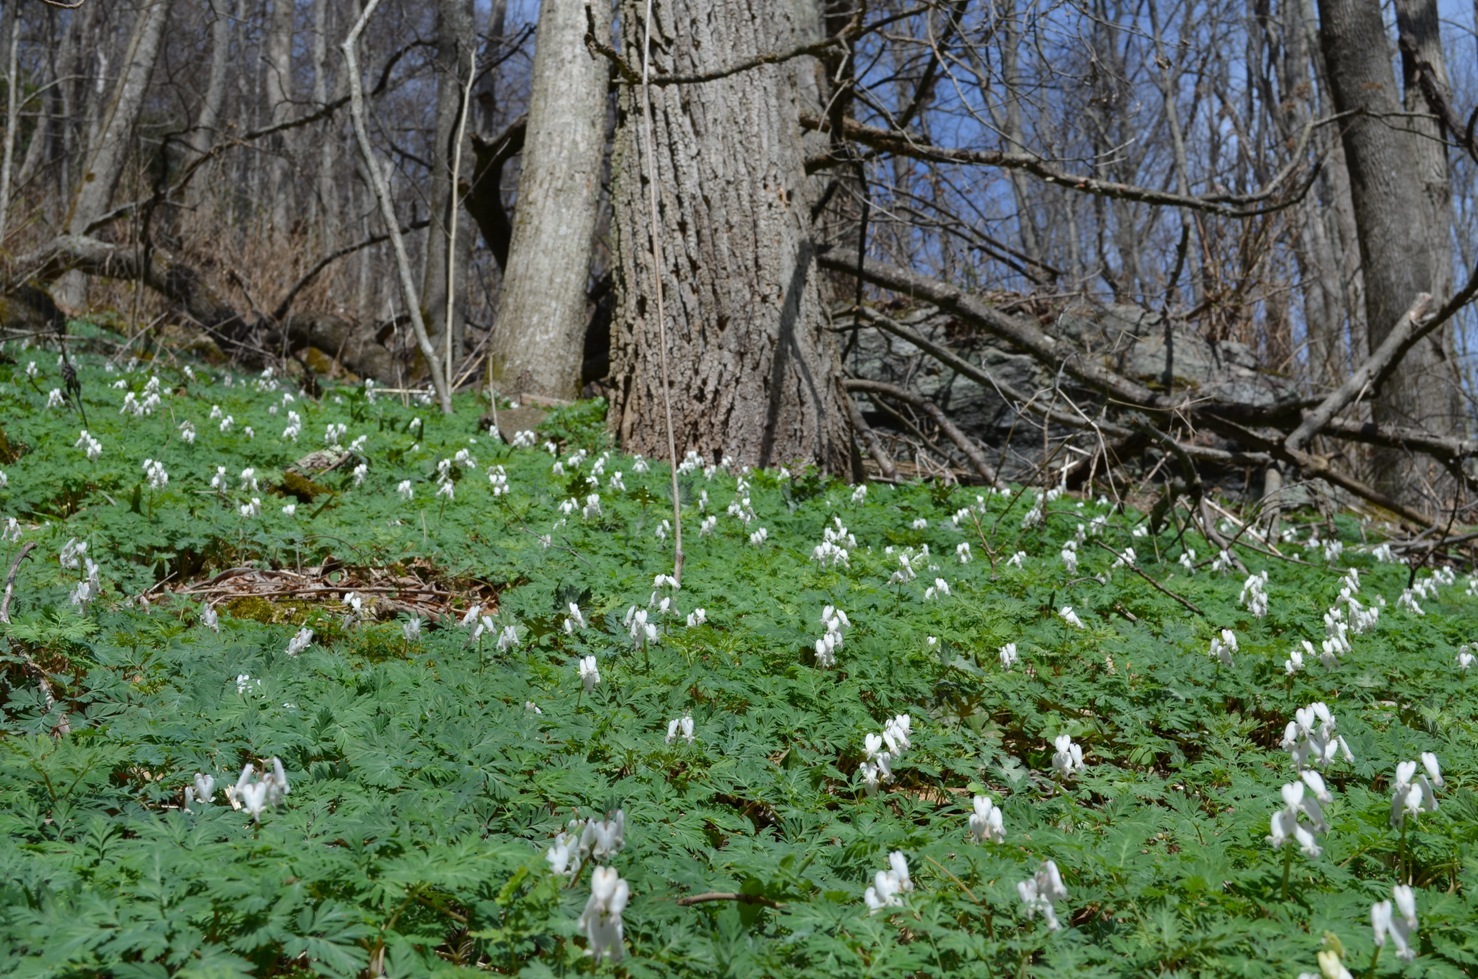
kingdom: Plantae
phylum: Tracheophyta
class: Magnoliopsida
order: Ranunculales
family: Papaveraceae
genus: Dicentra
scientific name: Dicentra canadensis
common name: Squirrel-corn
